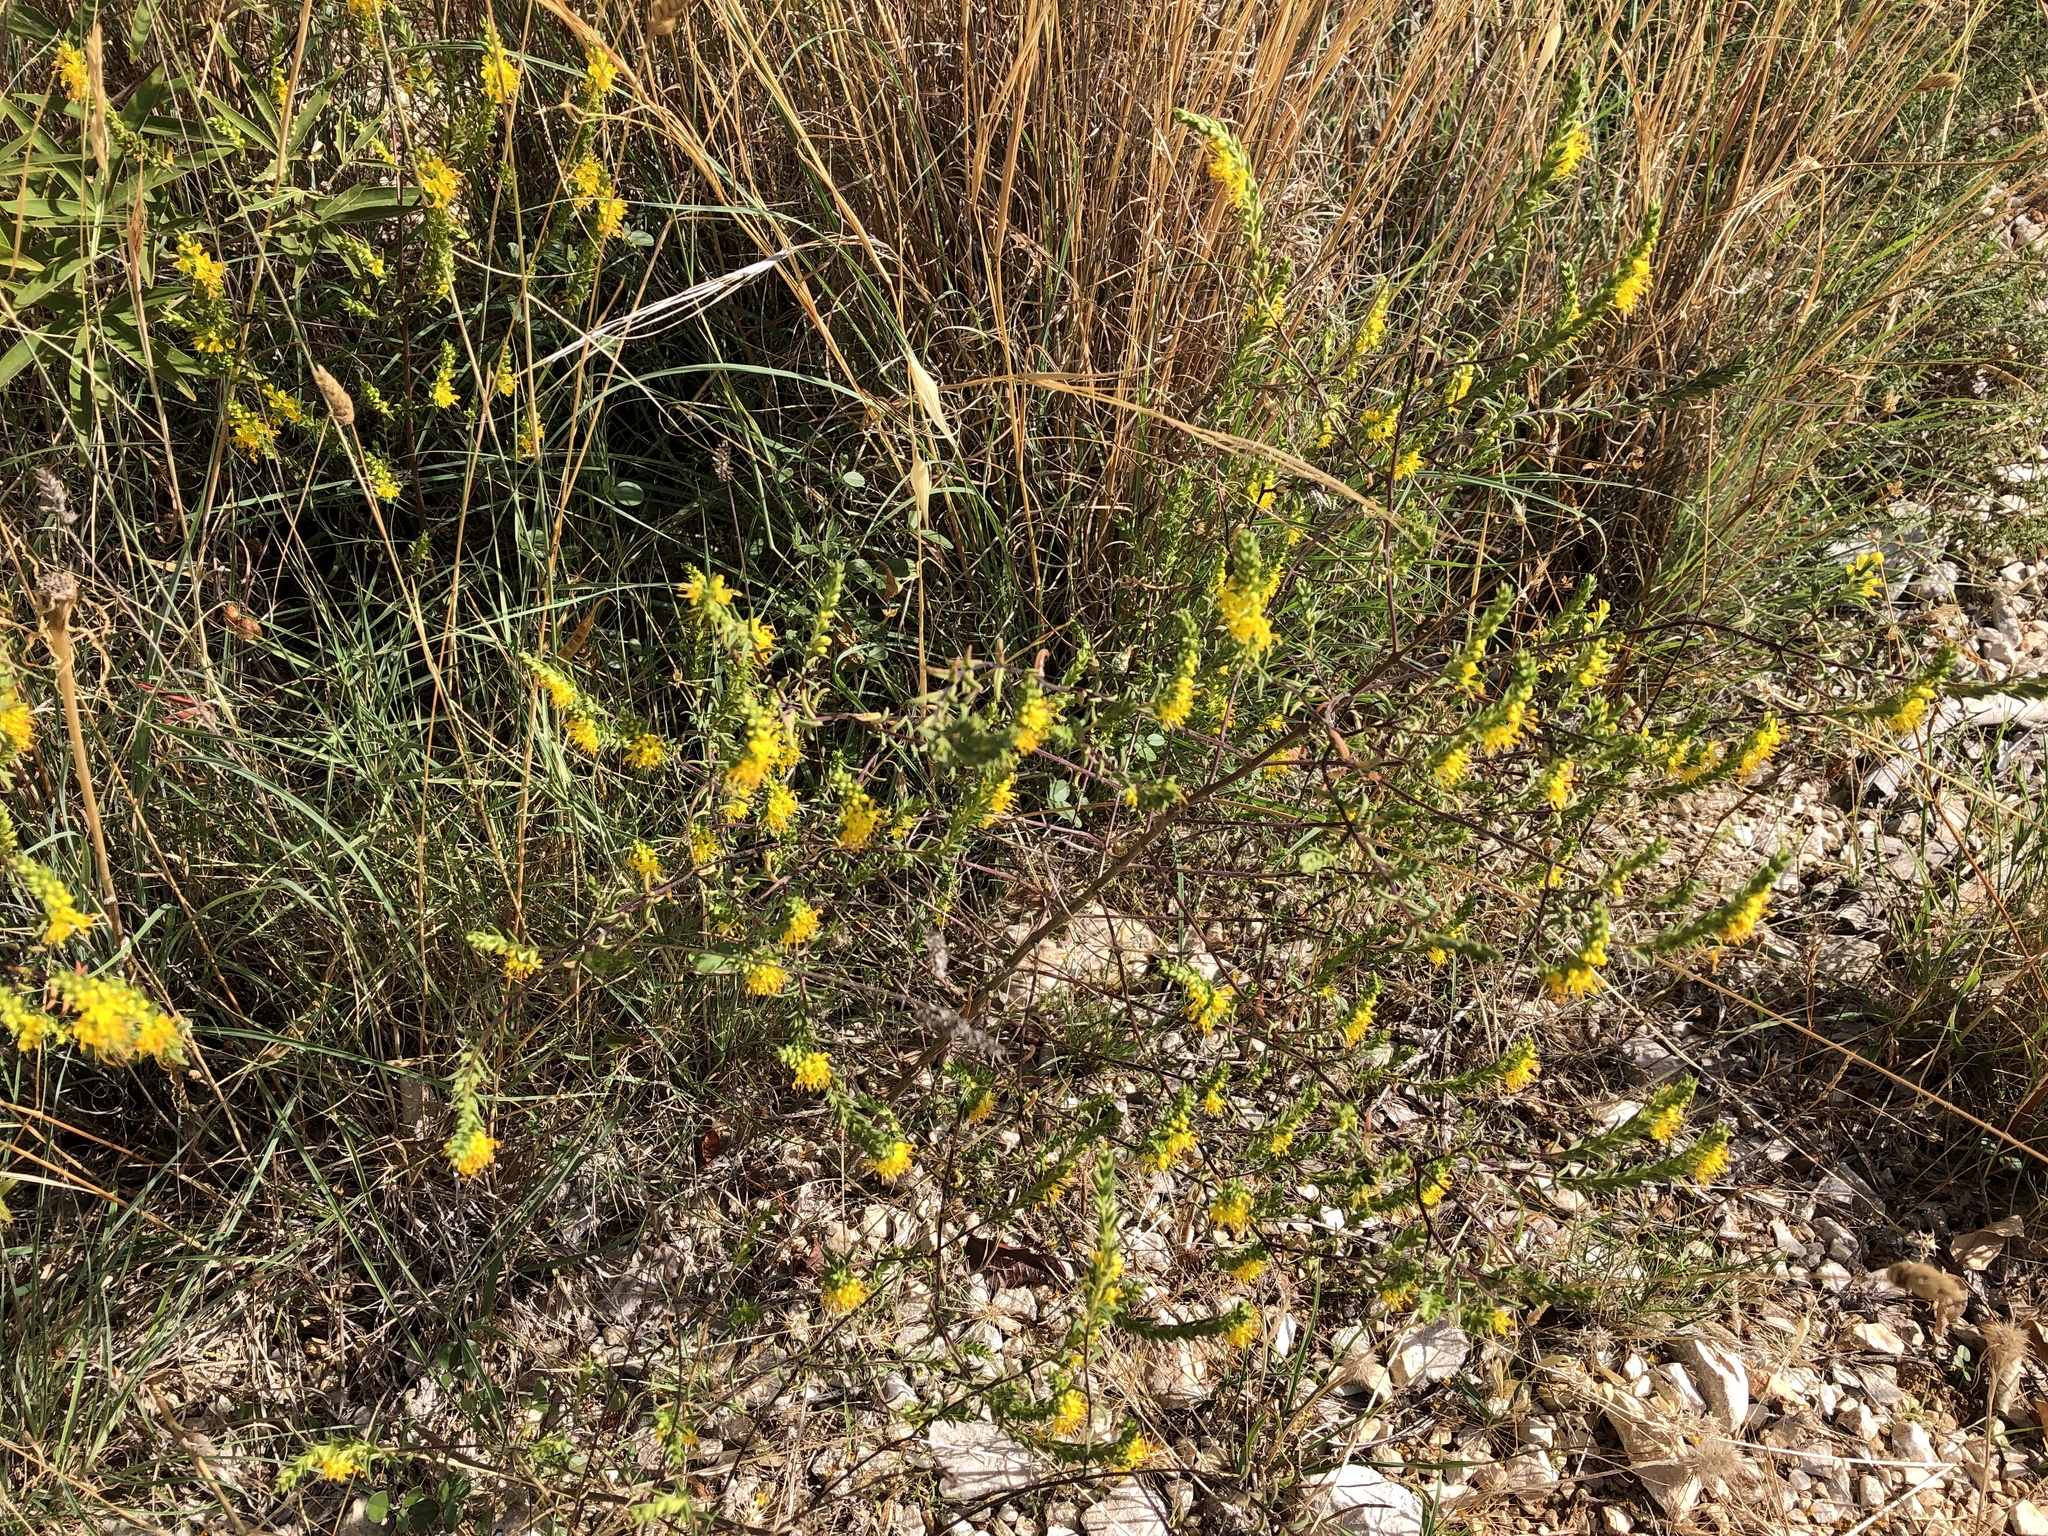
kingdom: Plantae
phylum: Tracheophyta
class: Magnoliopsida
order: Lamiales
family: Orobanchaceae
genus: Odontites
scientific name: Odontites luteus
